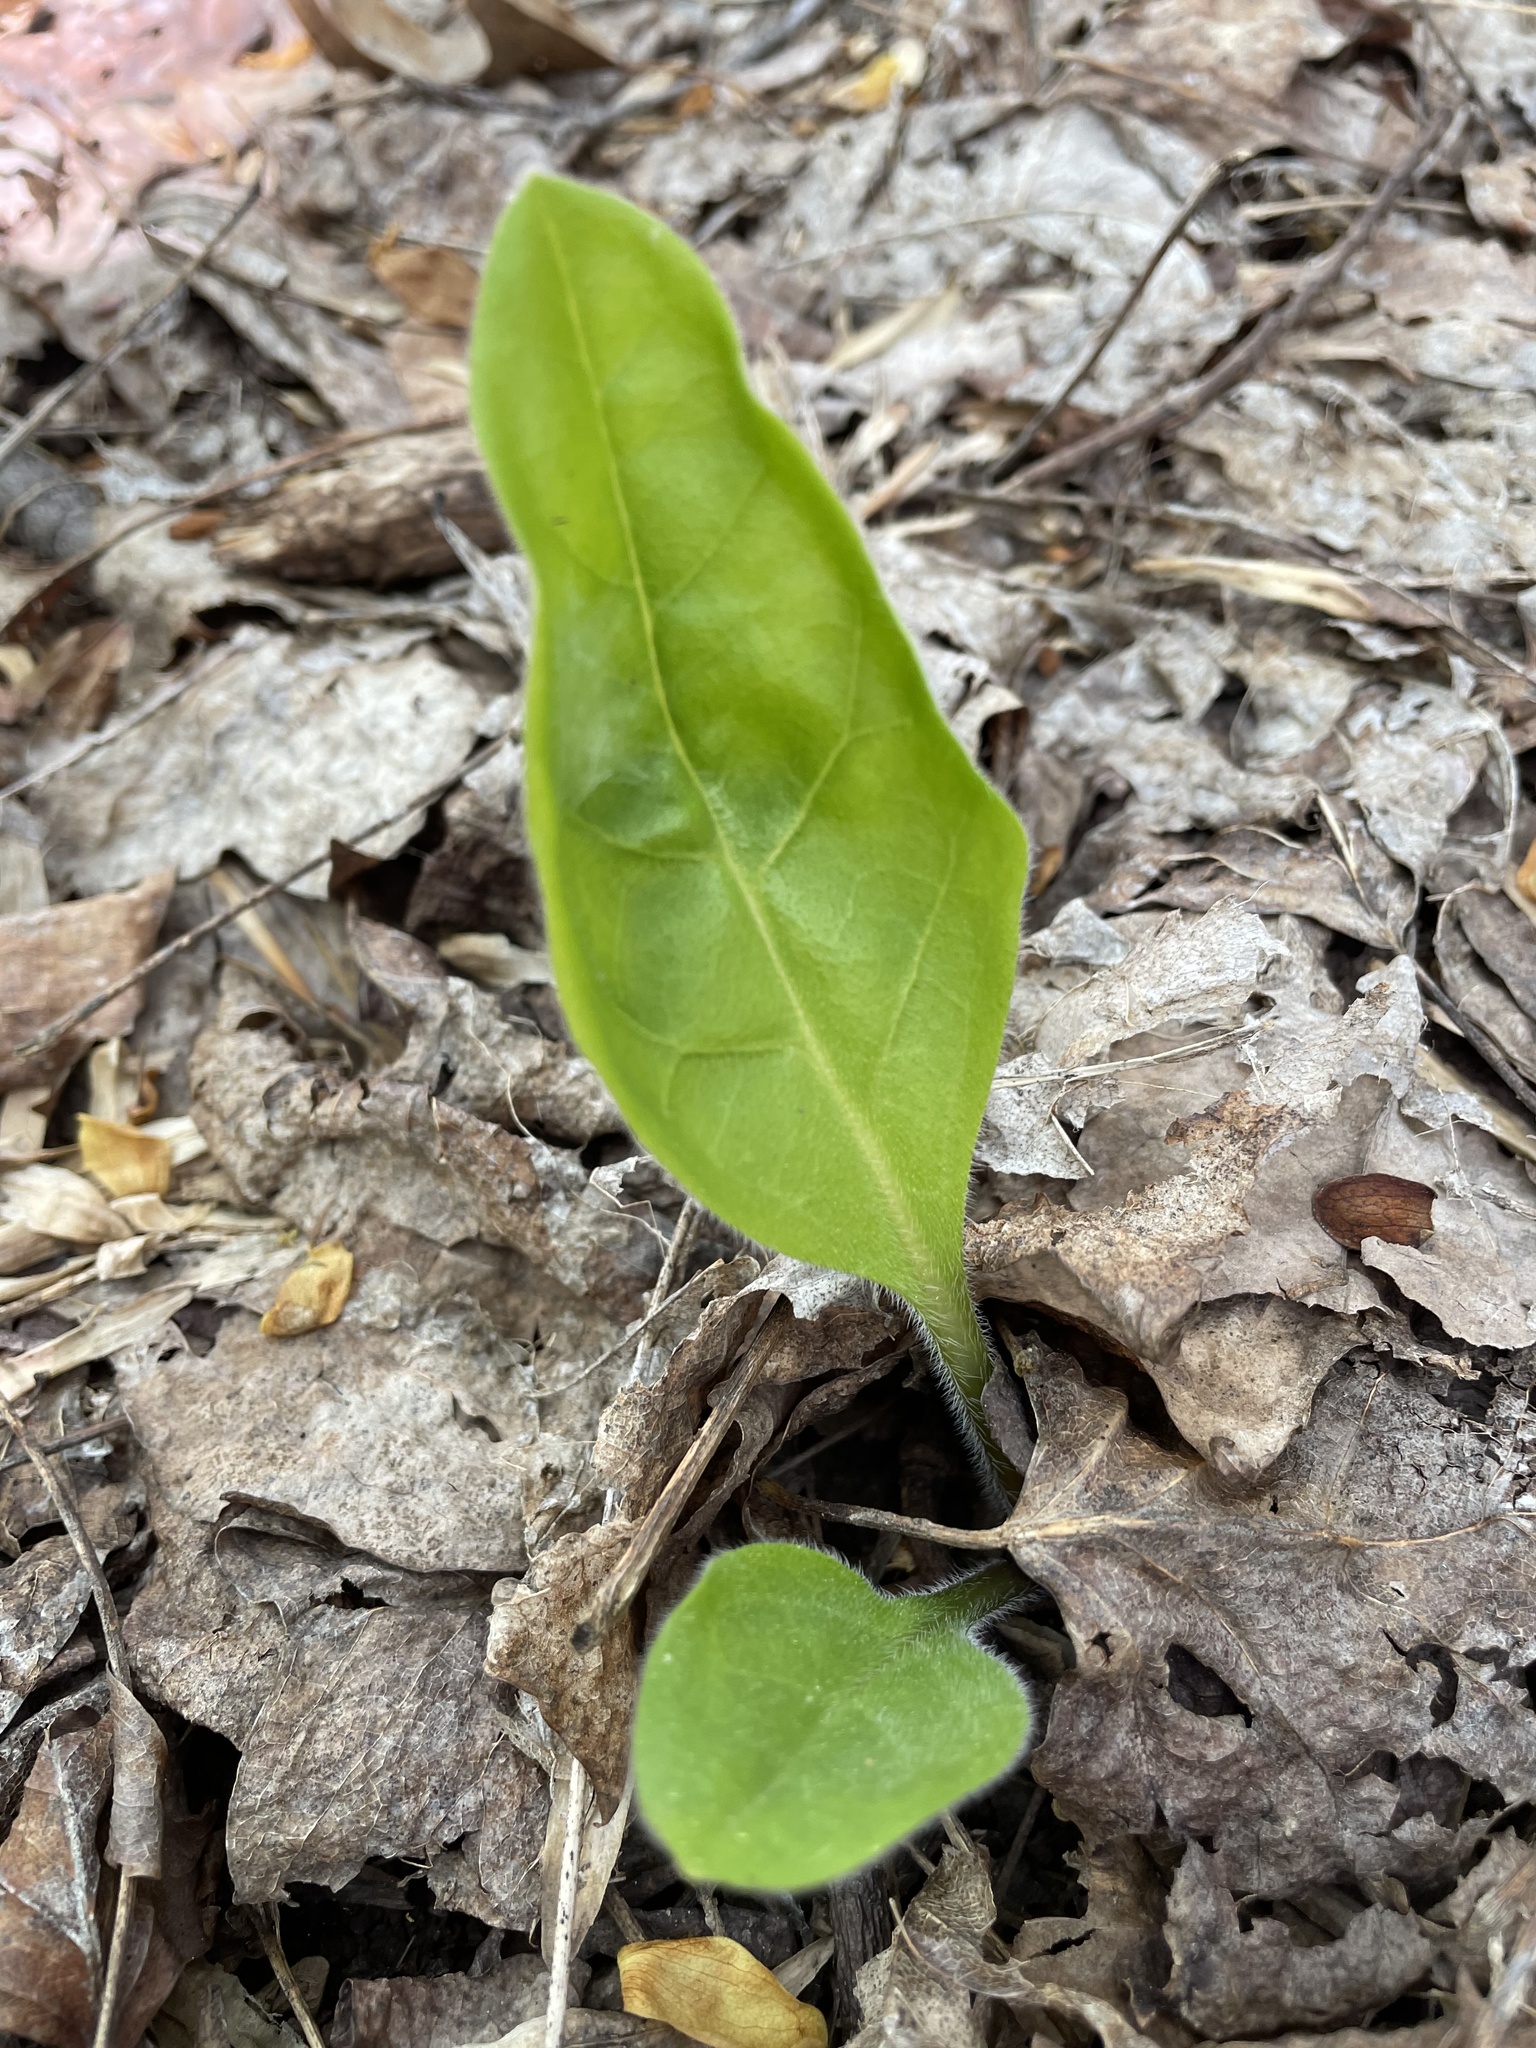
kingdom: Plantae
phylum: Tracheophyta
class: Magnoliopsida
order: Boraginales
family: Boraginaceae
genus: Andersonglossum
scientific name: Andersonglossum virginianum
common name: Wild comfrey
